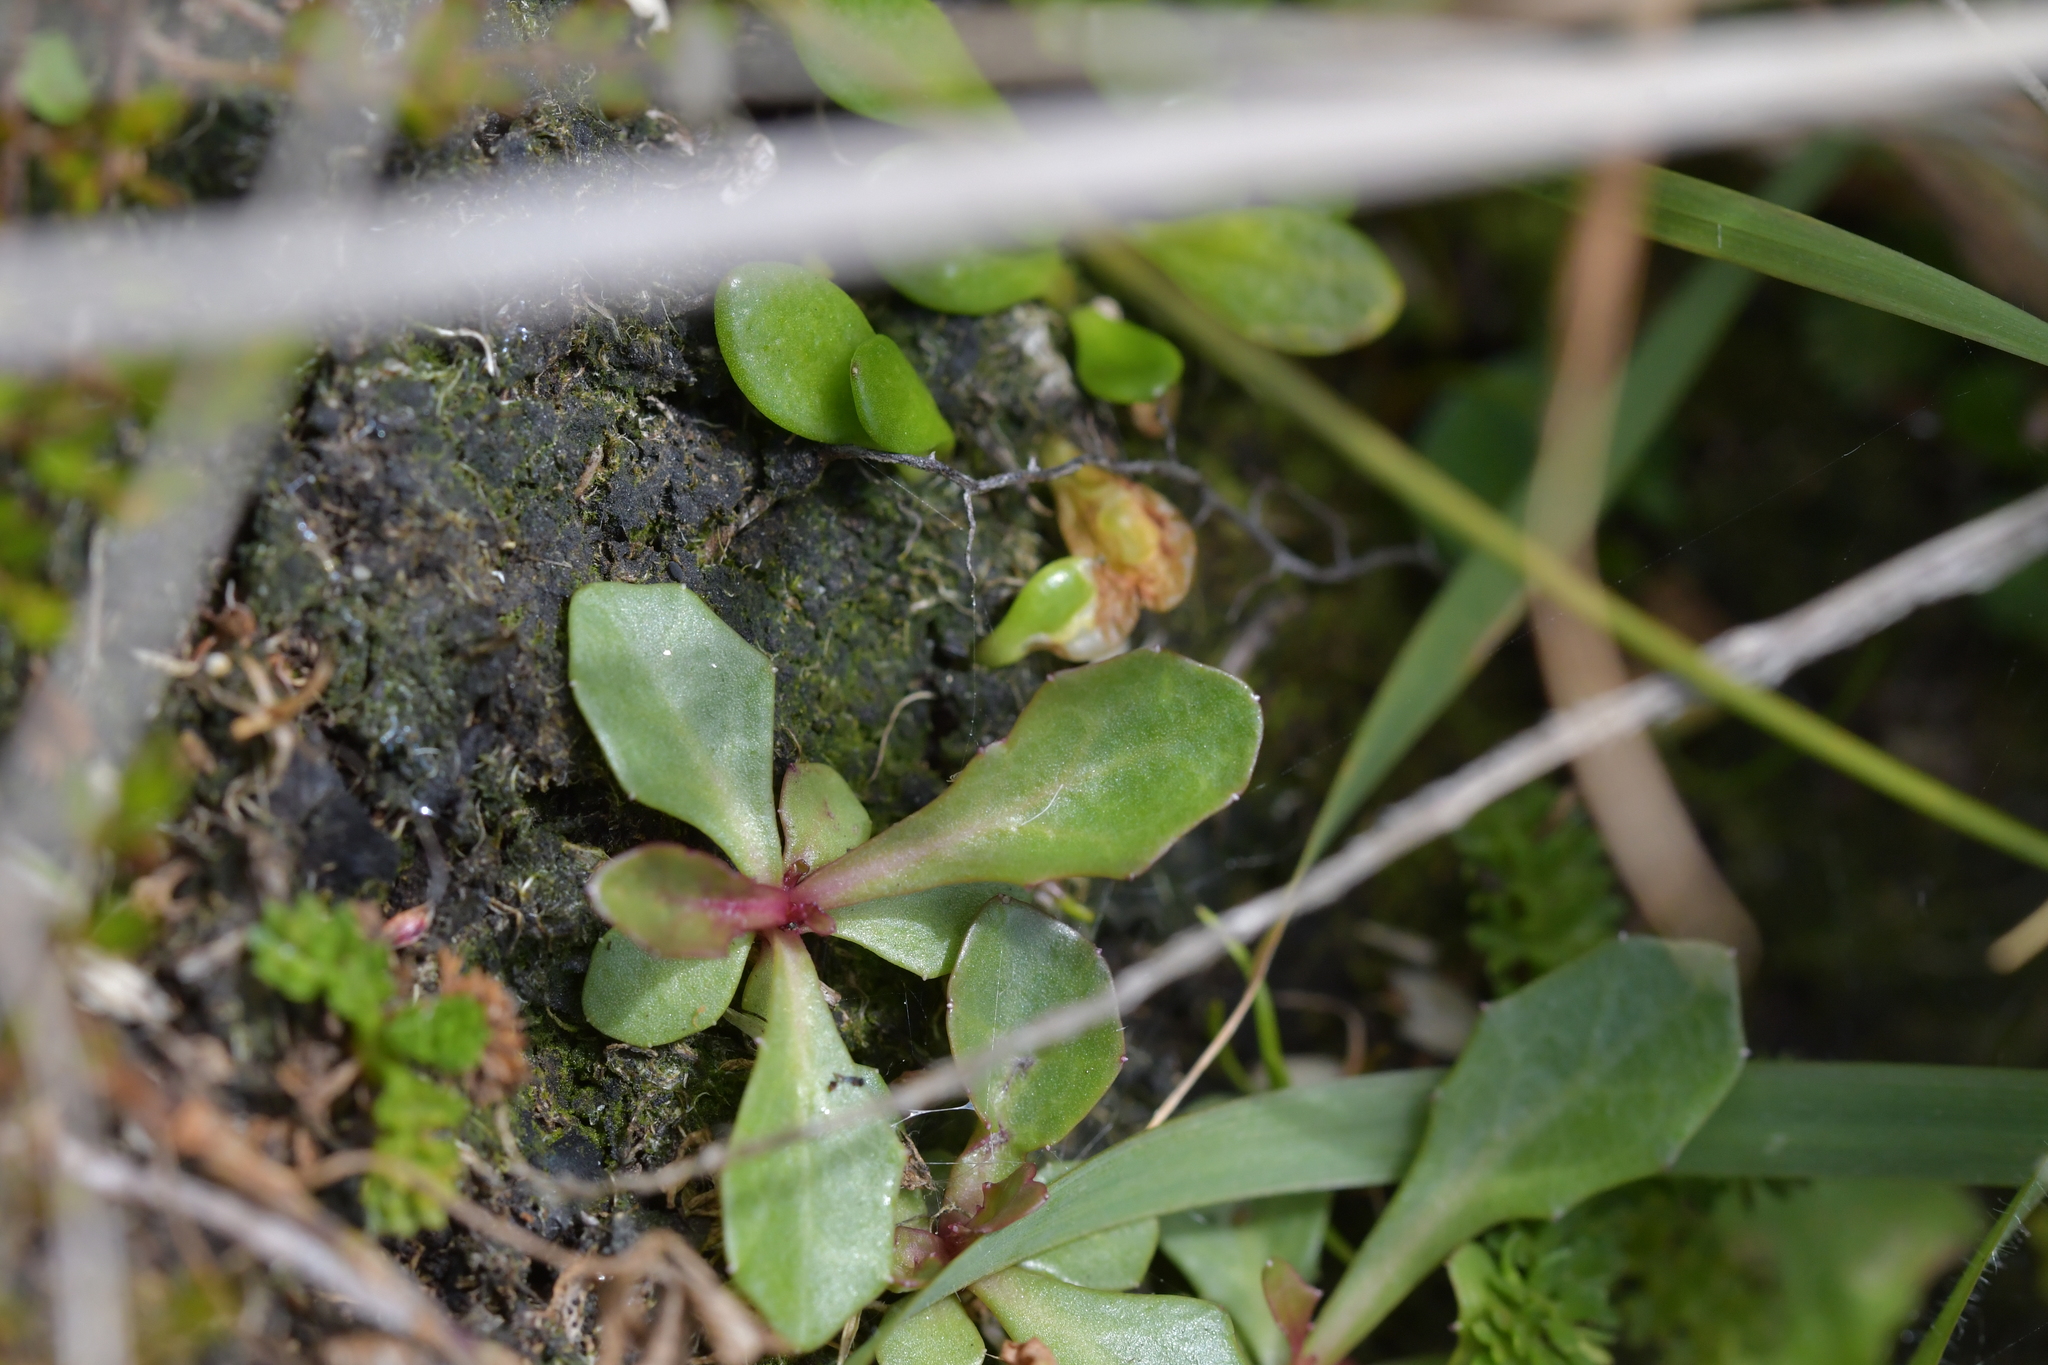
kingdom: Plantae
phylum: Tracheophyta
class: Magnoliopsida
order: Asterales
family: Campanulaceae
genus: Lobelia
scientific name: Lobelia anceps
